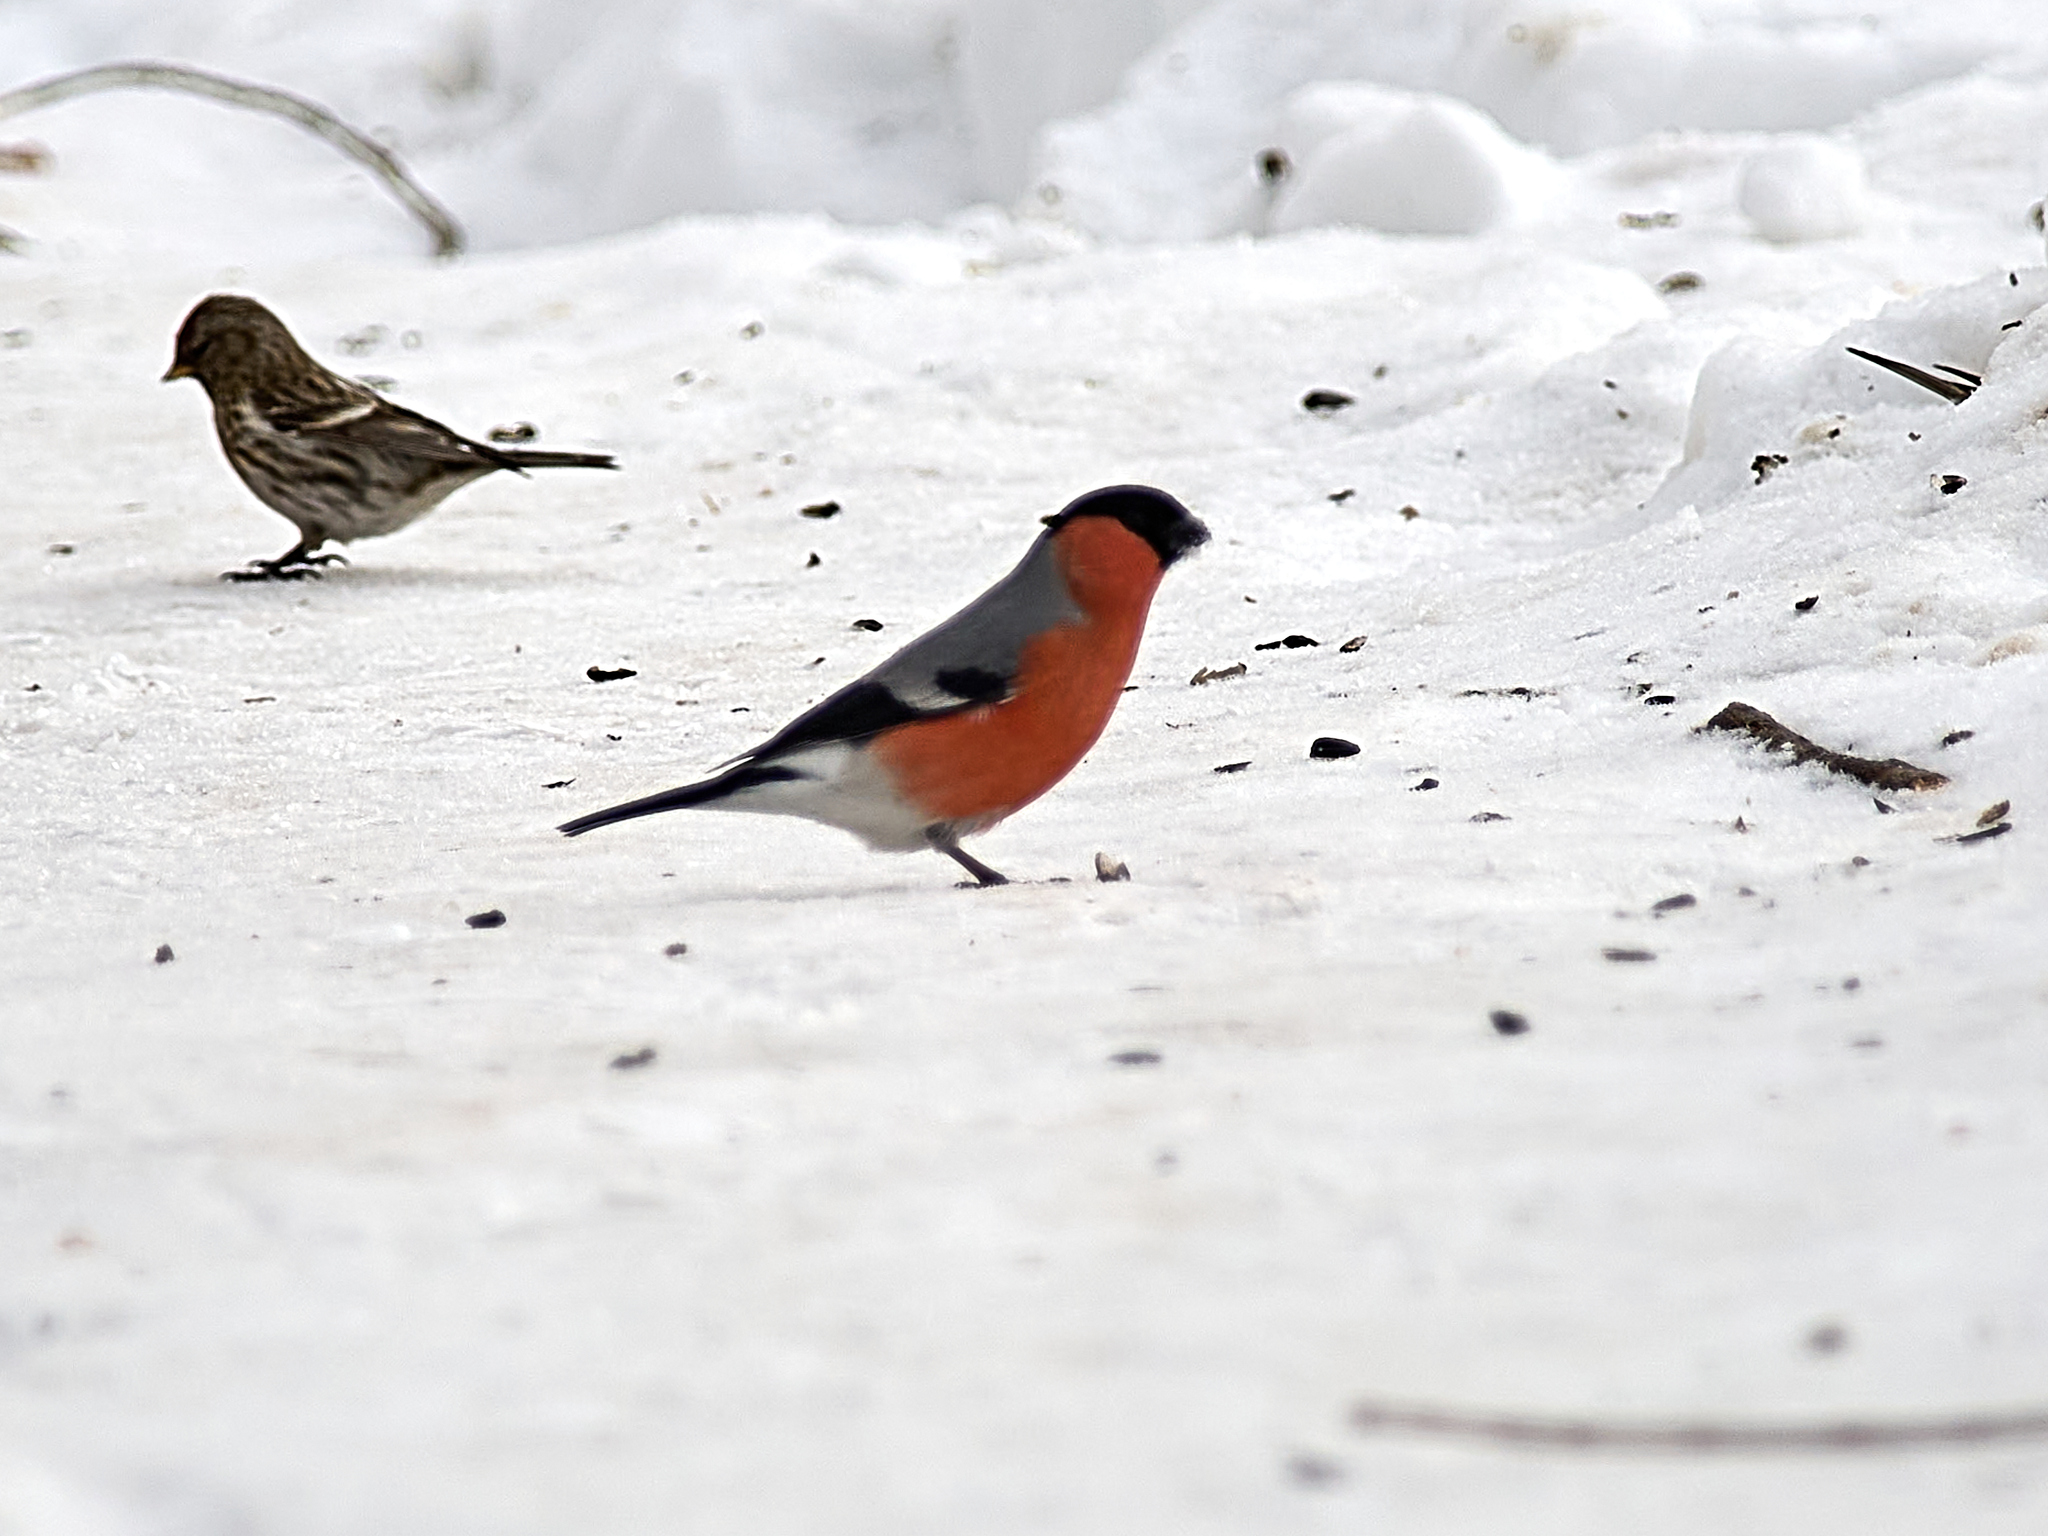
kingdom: Animalia
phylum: Chordata
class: Aves
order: Passeriformes
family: Fringillidae
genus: Pyrrhula
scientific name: Pyrrhula pyrrhula
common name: Eurasian bullfinch
